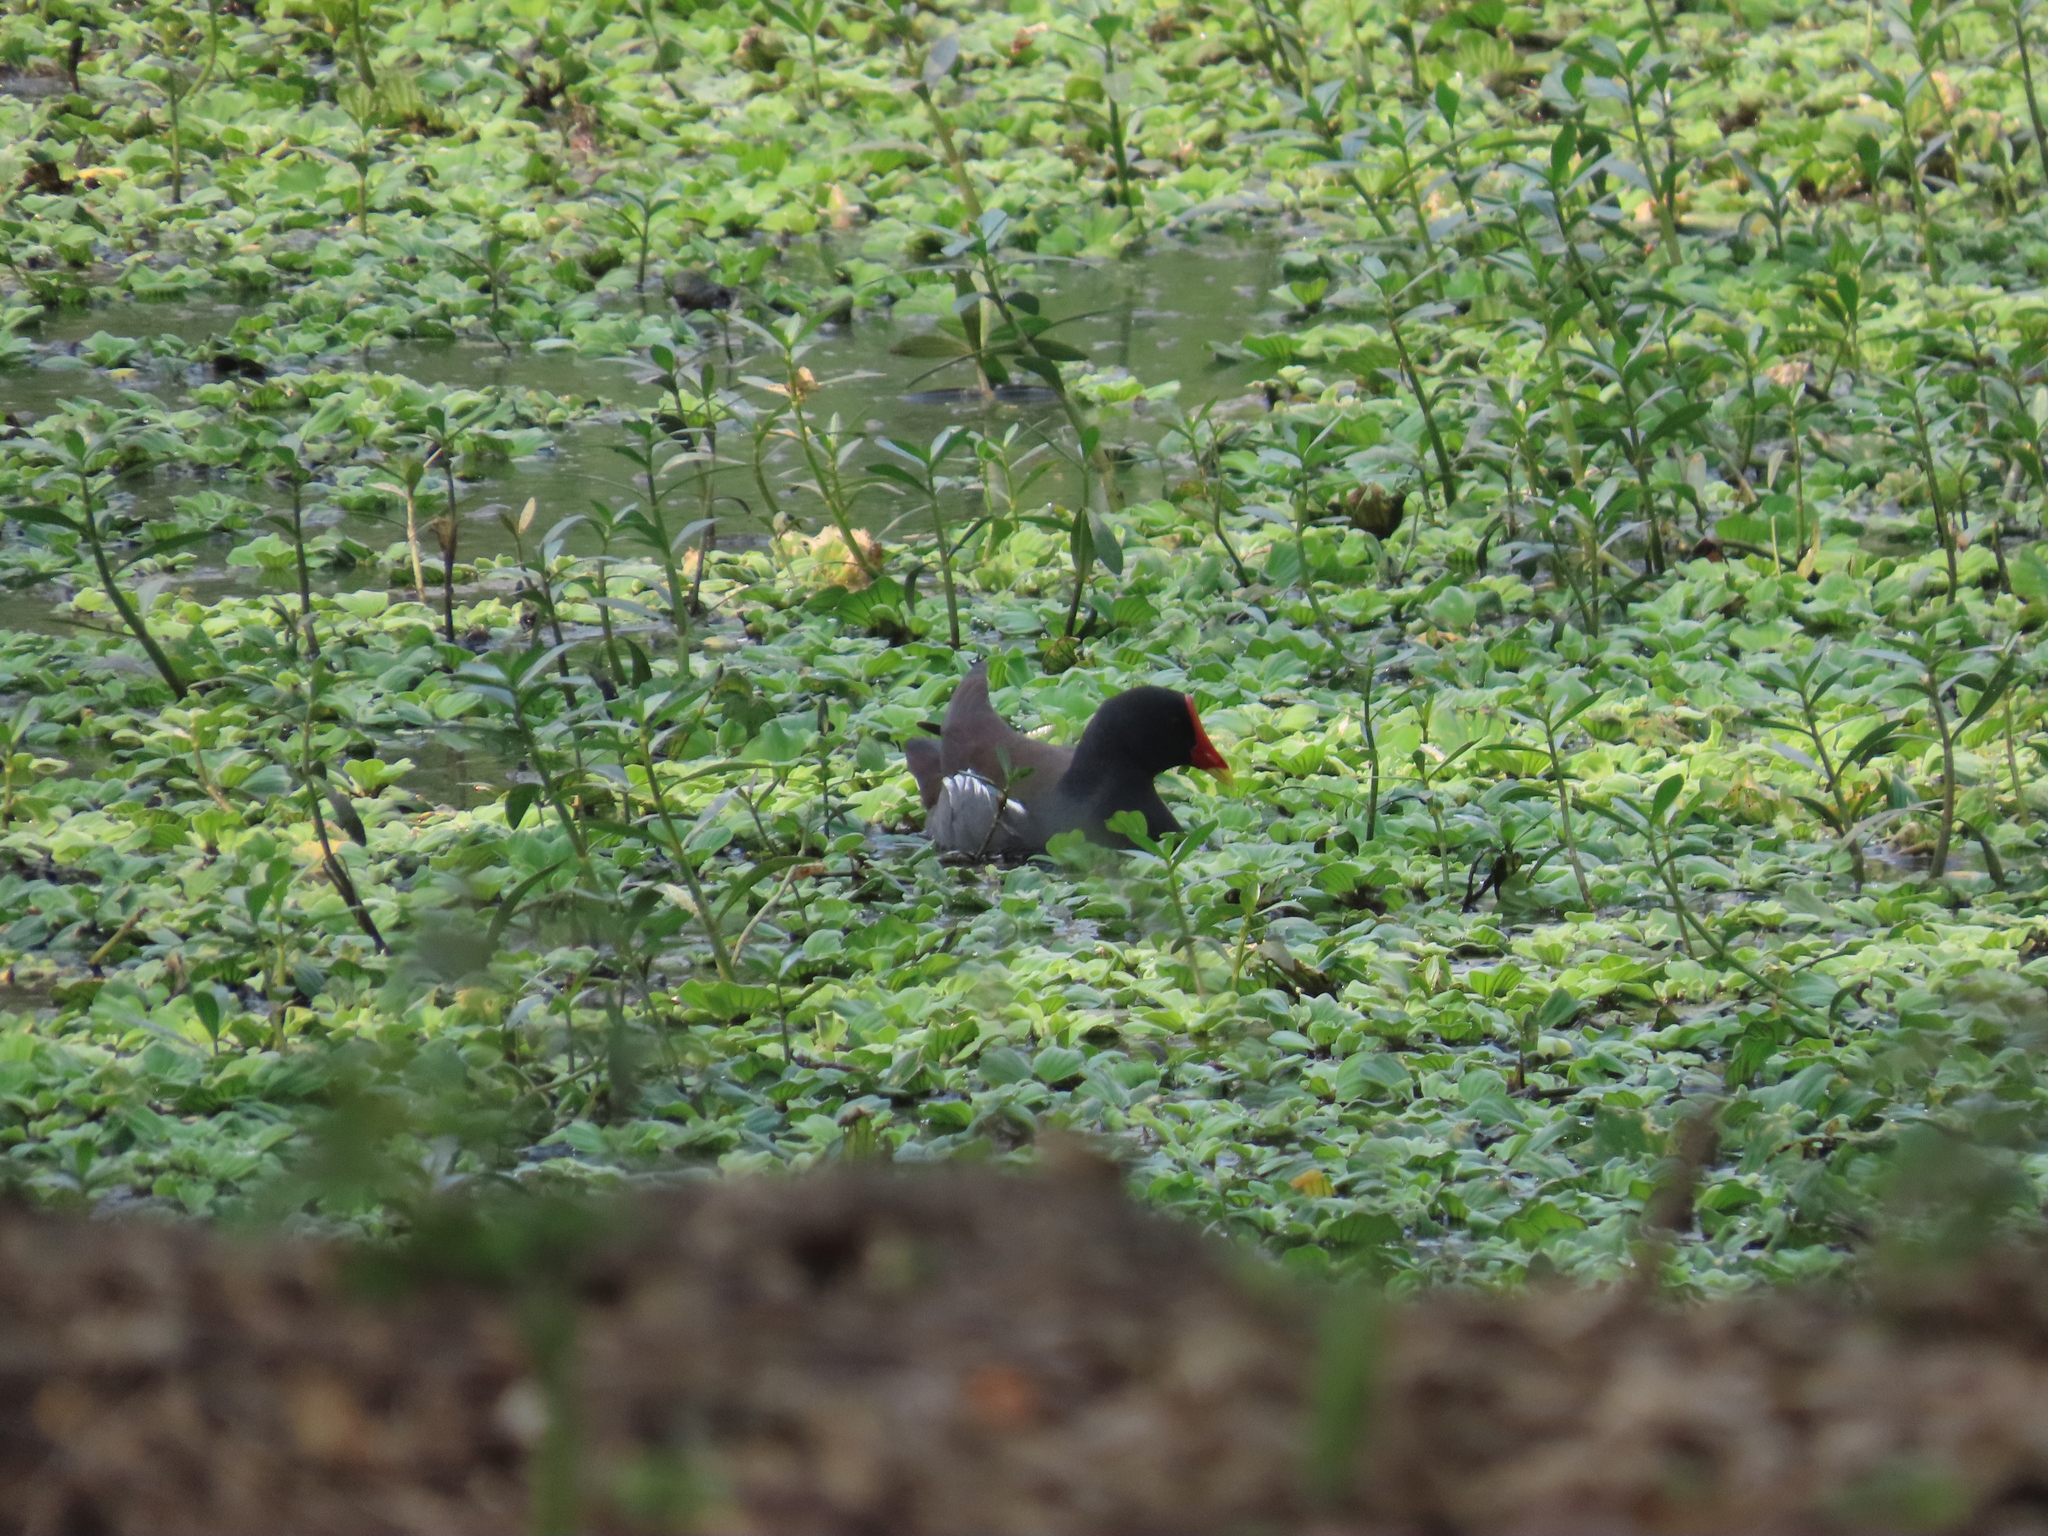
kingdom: Animalia
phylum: Chordata
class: Aves
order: Gruiformes
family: Rallidae
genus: Gallinula
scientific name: Gallinula chloropus
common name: Common moorhen
